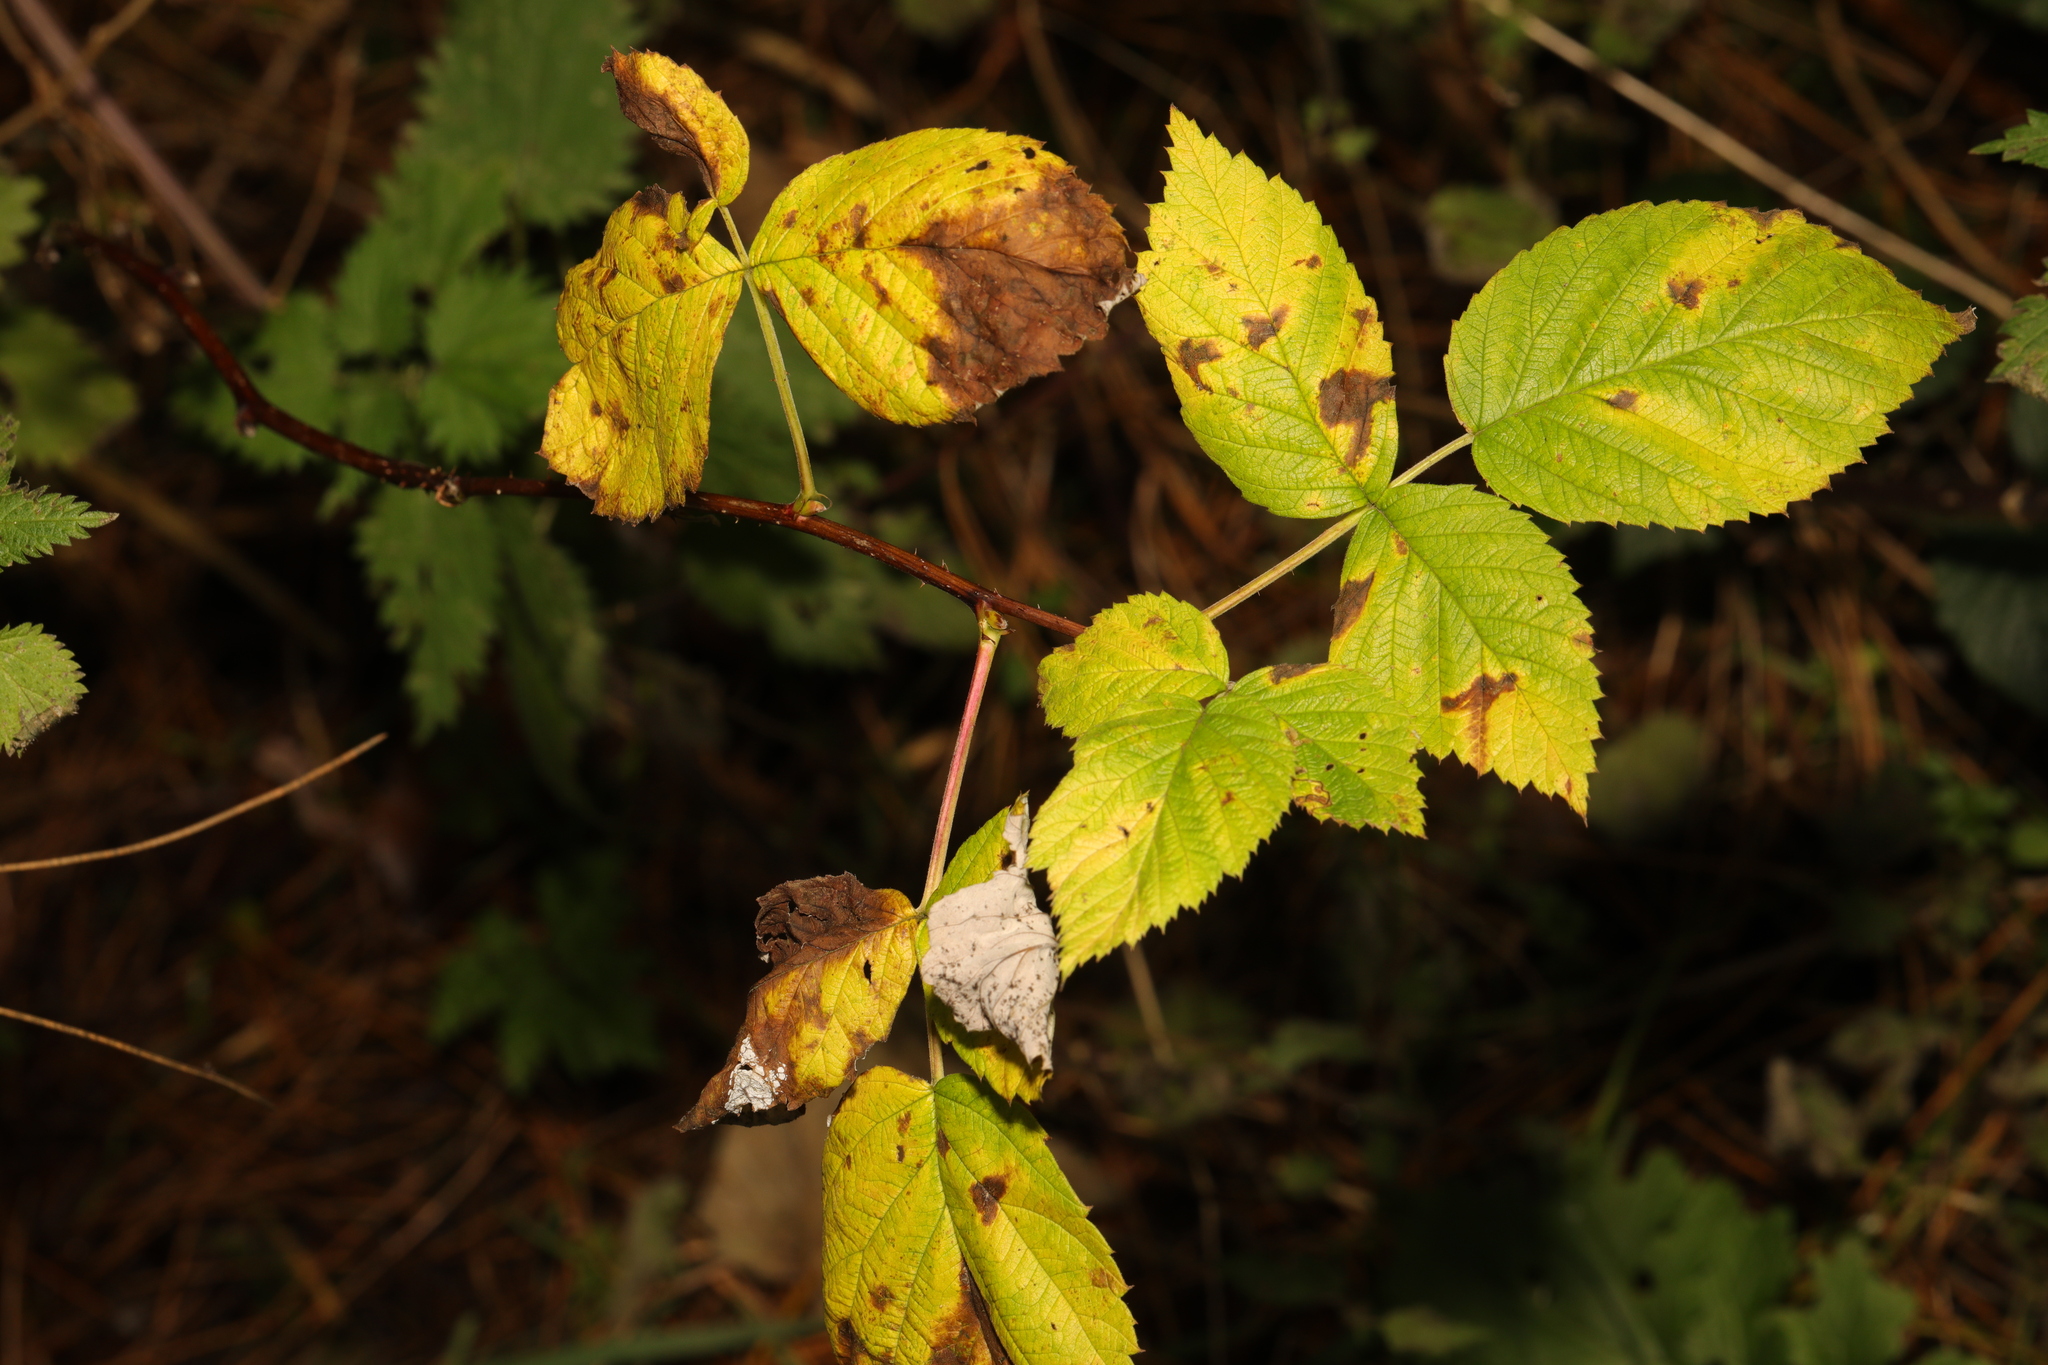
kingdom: Plantae
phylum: Tracheophyta
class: Magnoliopsida
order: Rosales
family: Rosaceae
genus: Rubus
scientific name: Rubus idaeus
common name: Raspberry
